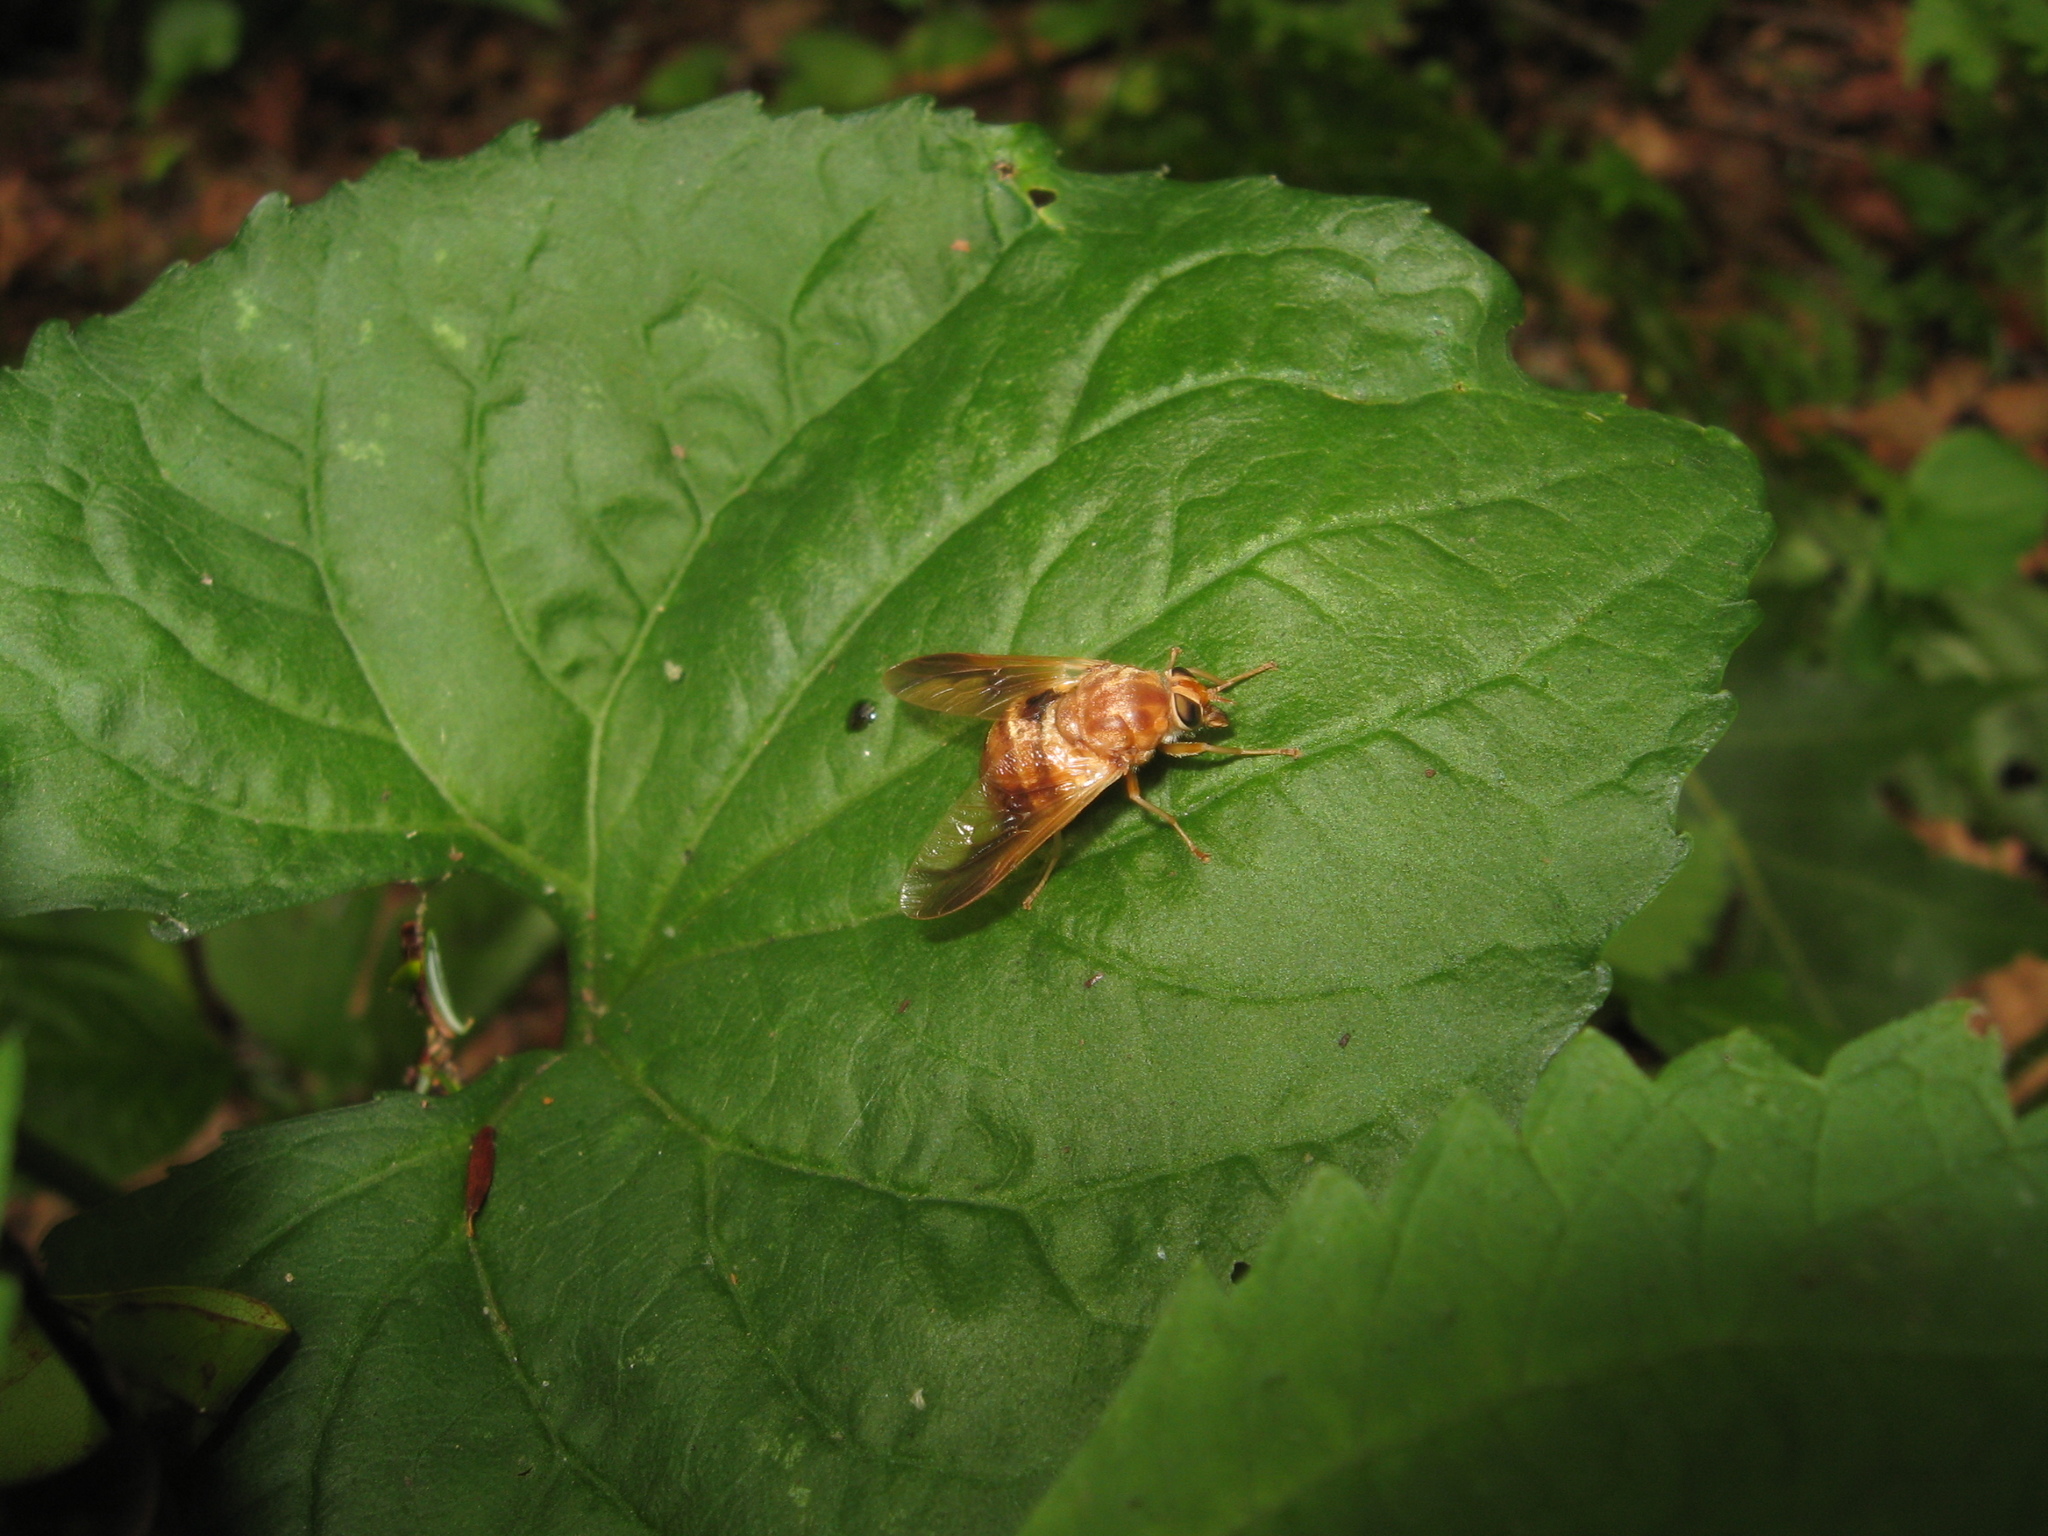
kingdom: Animalia
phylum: Arthropoda
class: Insecta
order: Diptera
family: Tabanidae
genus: Goniops
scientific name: Goniops chrysocoma
